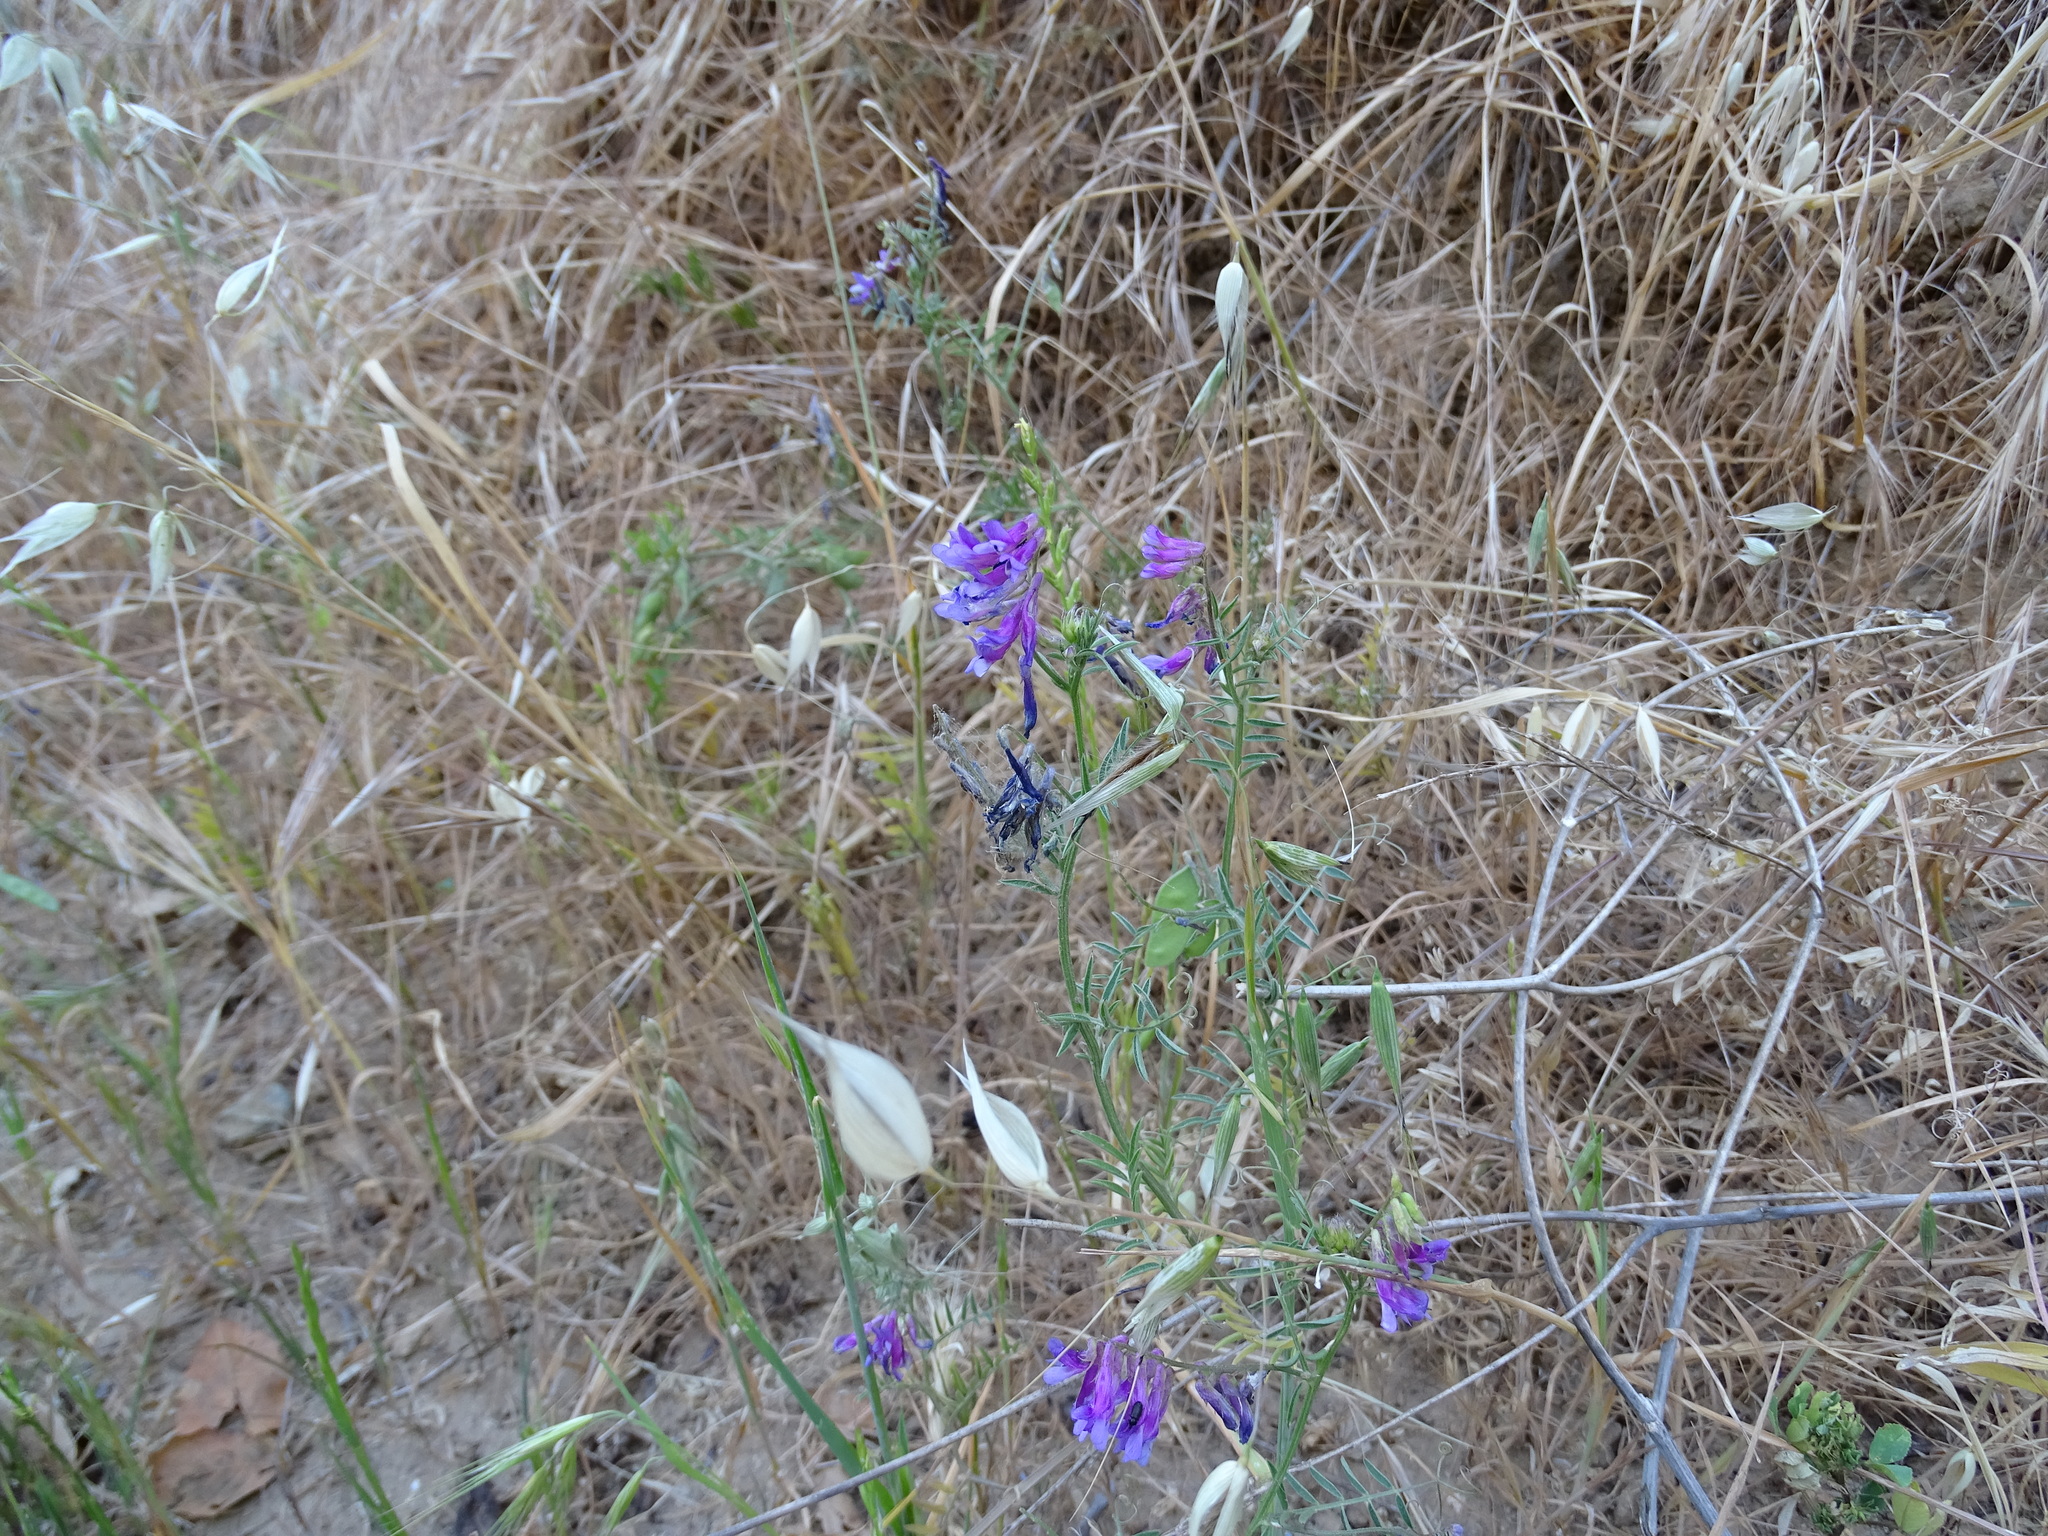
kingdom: Plantae
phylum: Tracheophyta
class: Magnoliopsida
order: Fabales
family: Fabaceae
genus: Vicia
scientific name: Vicia villosa
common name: Fodder vetch
